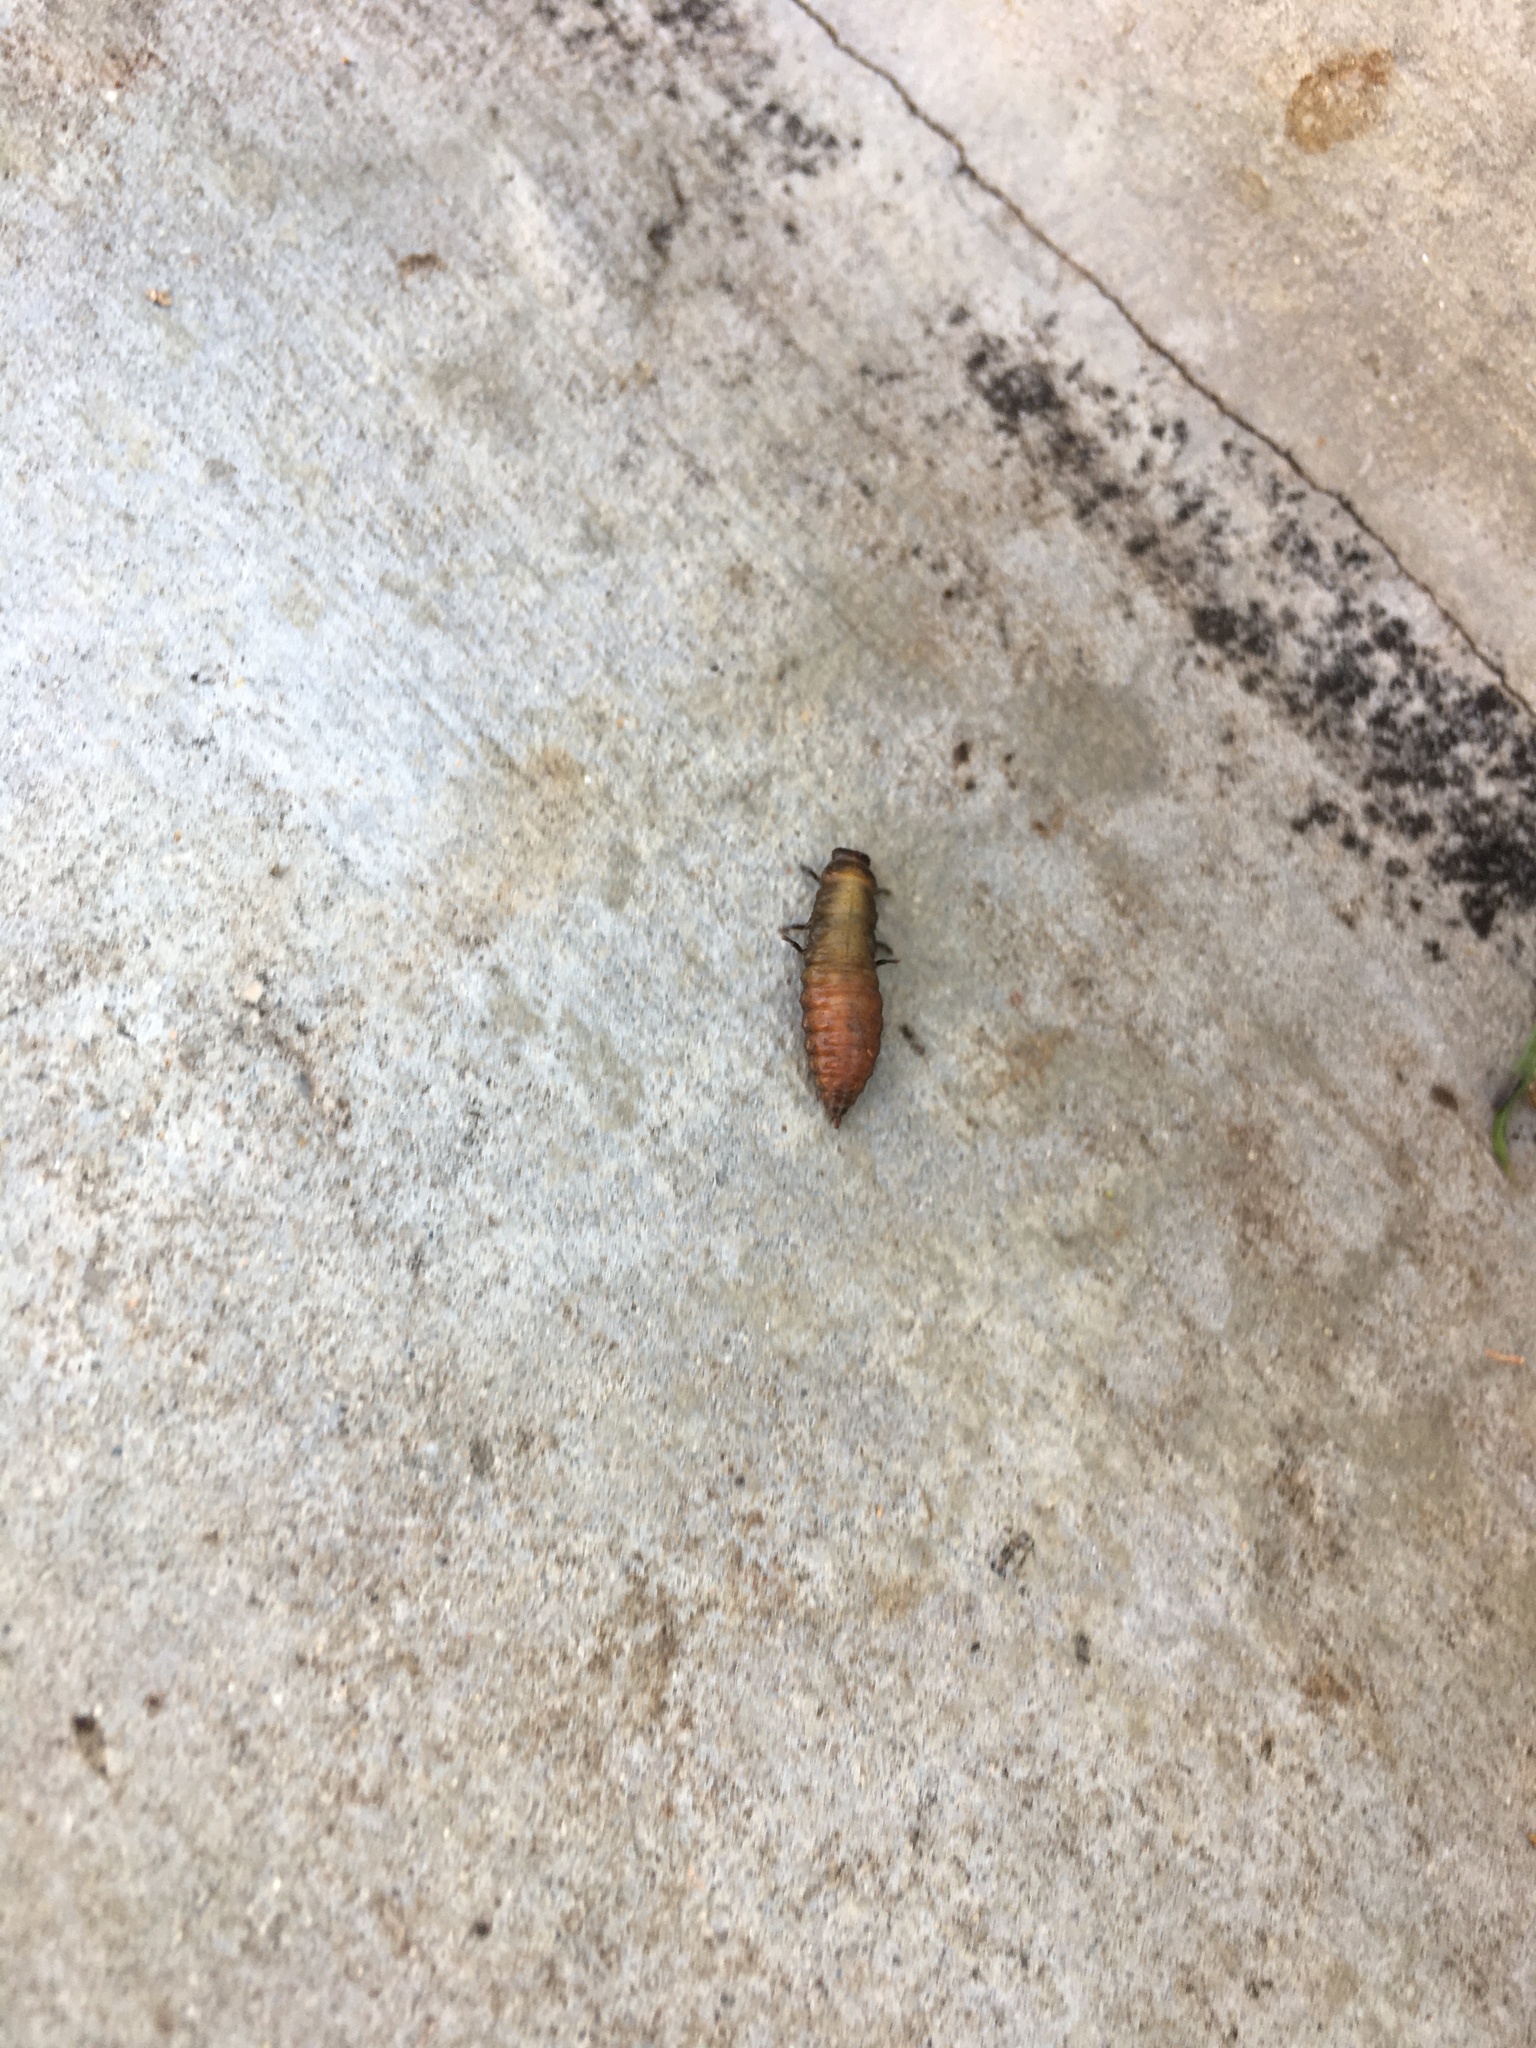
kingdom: Animalia
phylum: Arthropoda
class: Insecta
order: Coleoptera
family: Chrysomelidae
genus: Trachymela
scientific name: Trachymela sloanei
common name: Australian tortoise beetle
